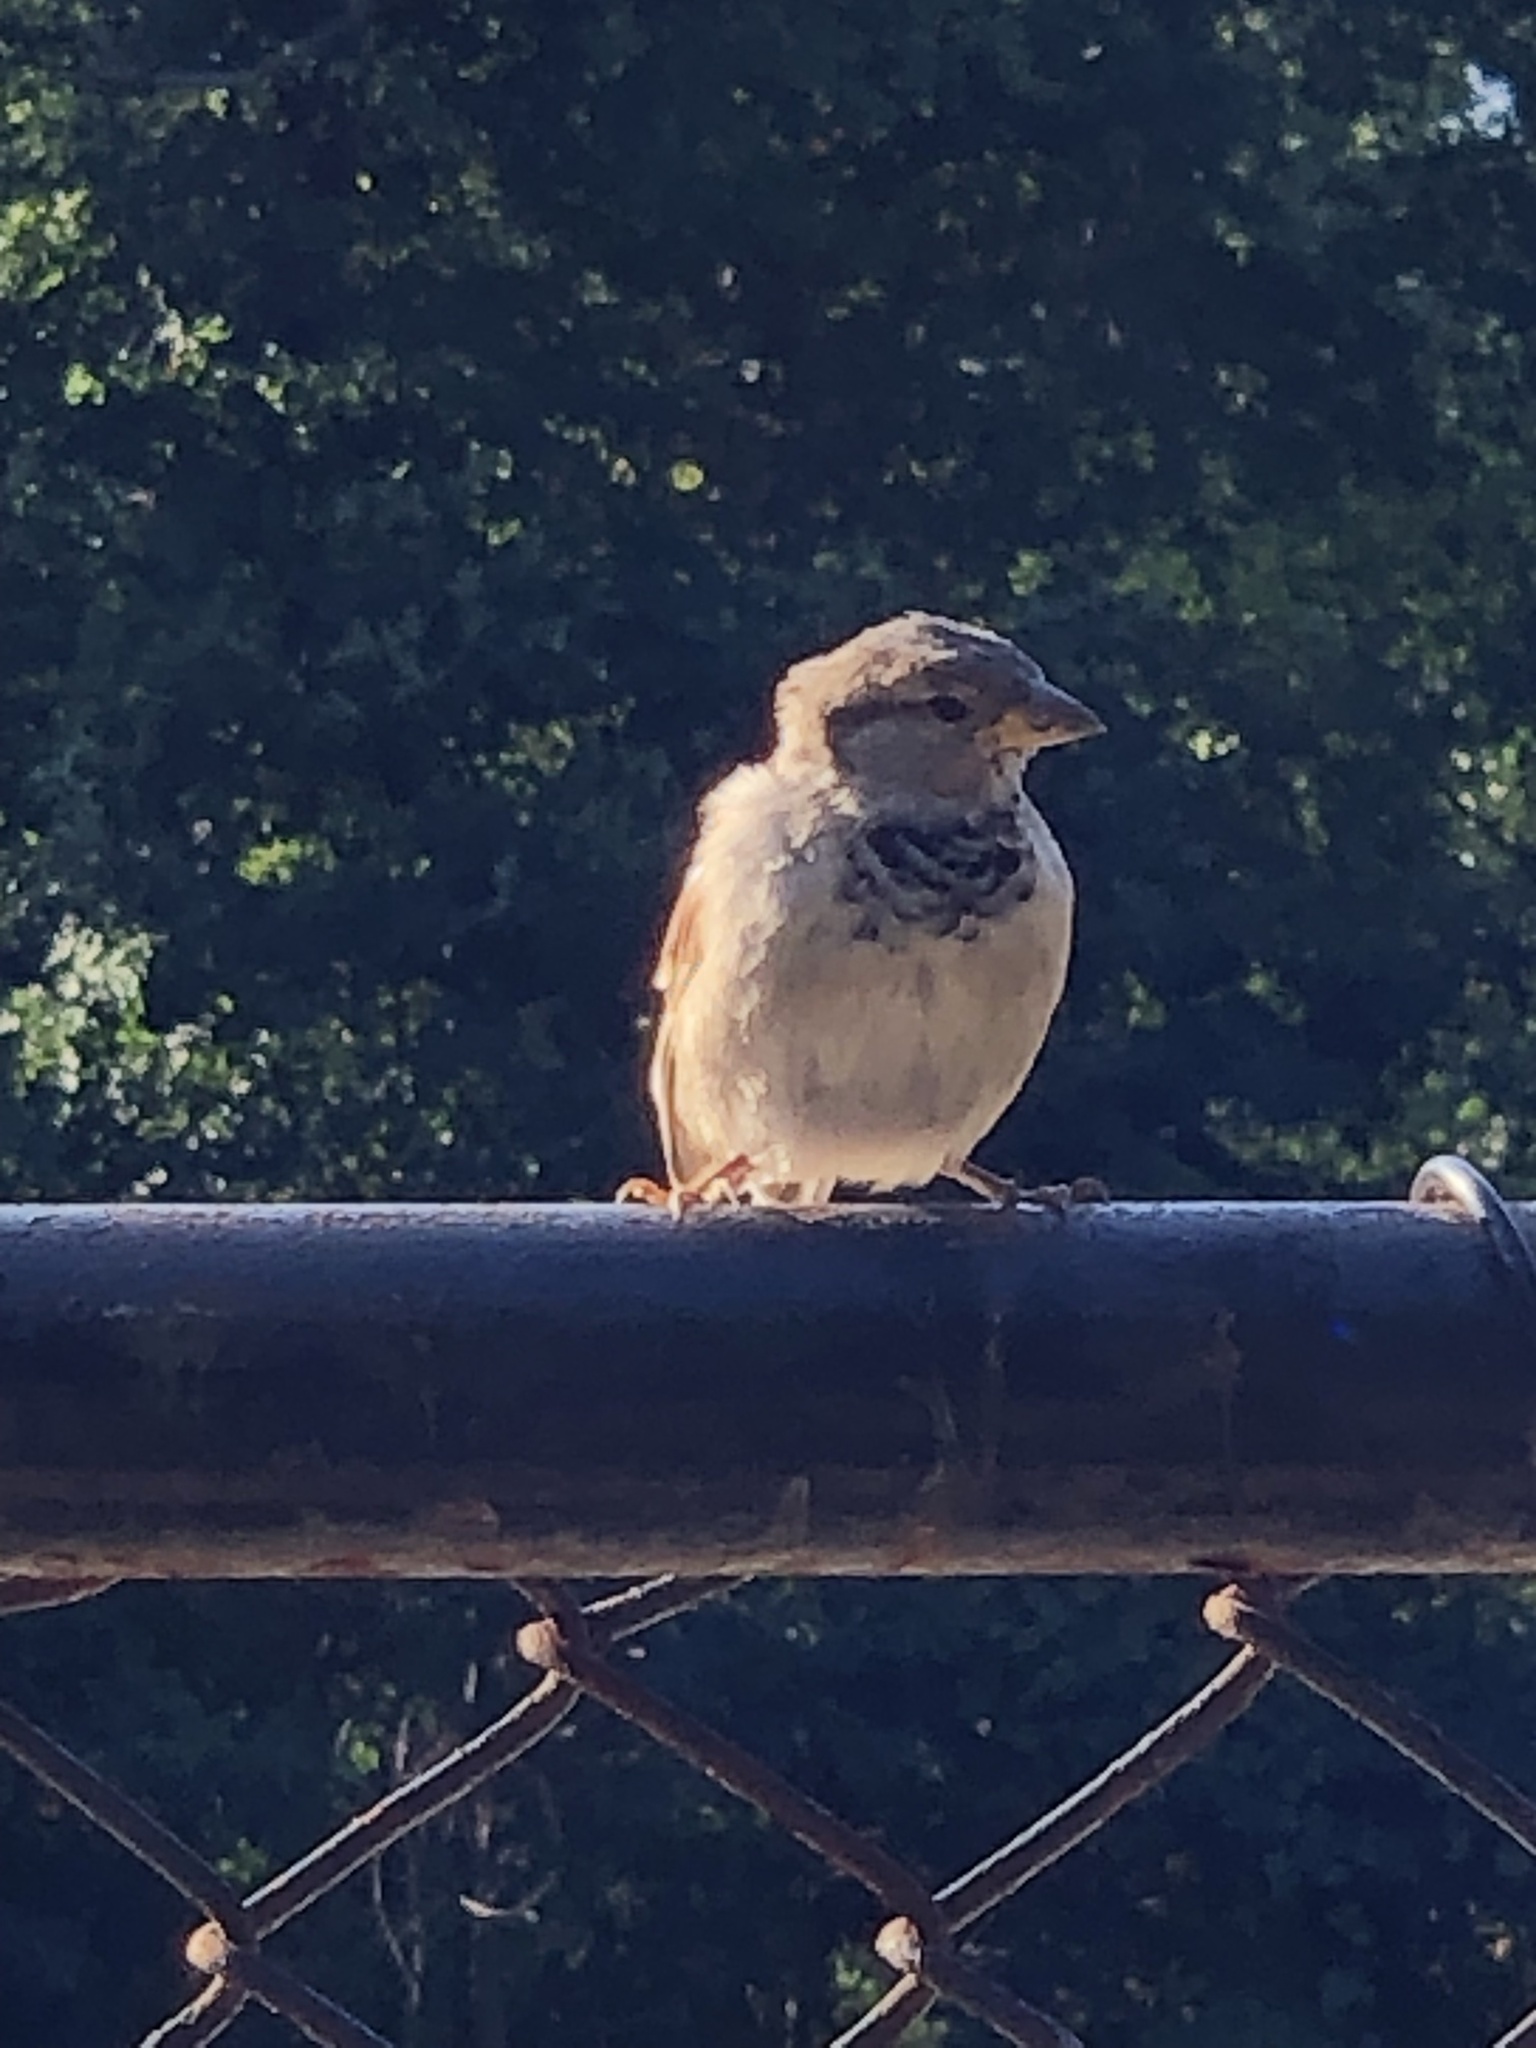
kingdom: Animalia
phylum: Chordata
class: Aves
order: Passeriformes
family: Passeridae
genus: Passer
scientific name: Passer domesticus
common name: House sparrow
